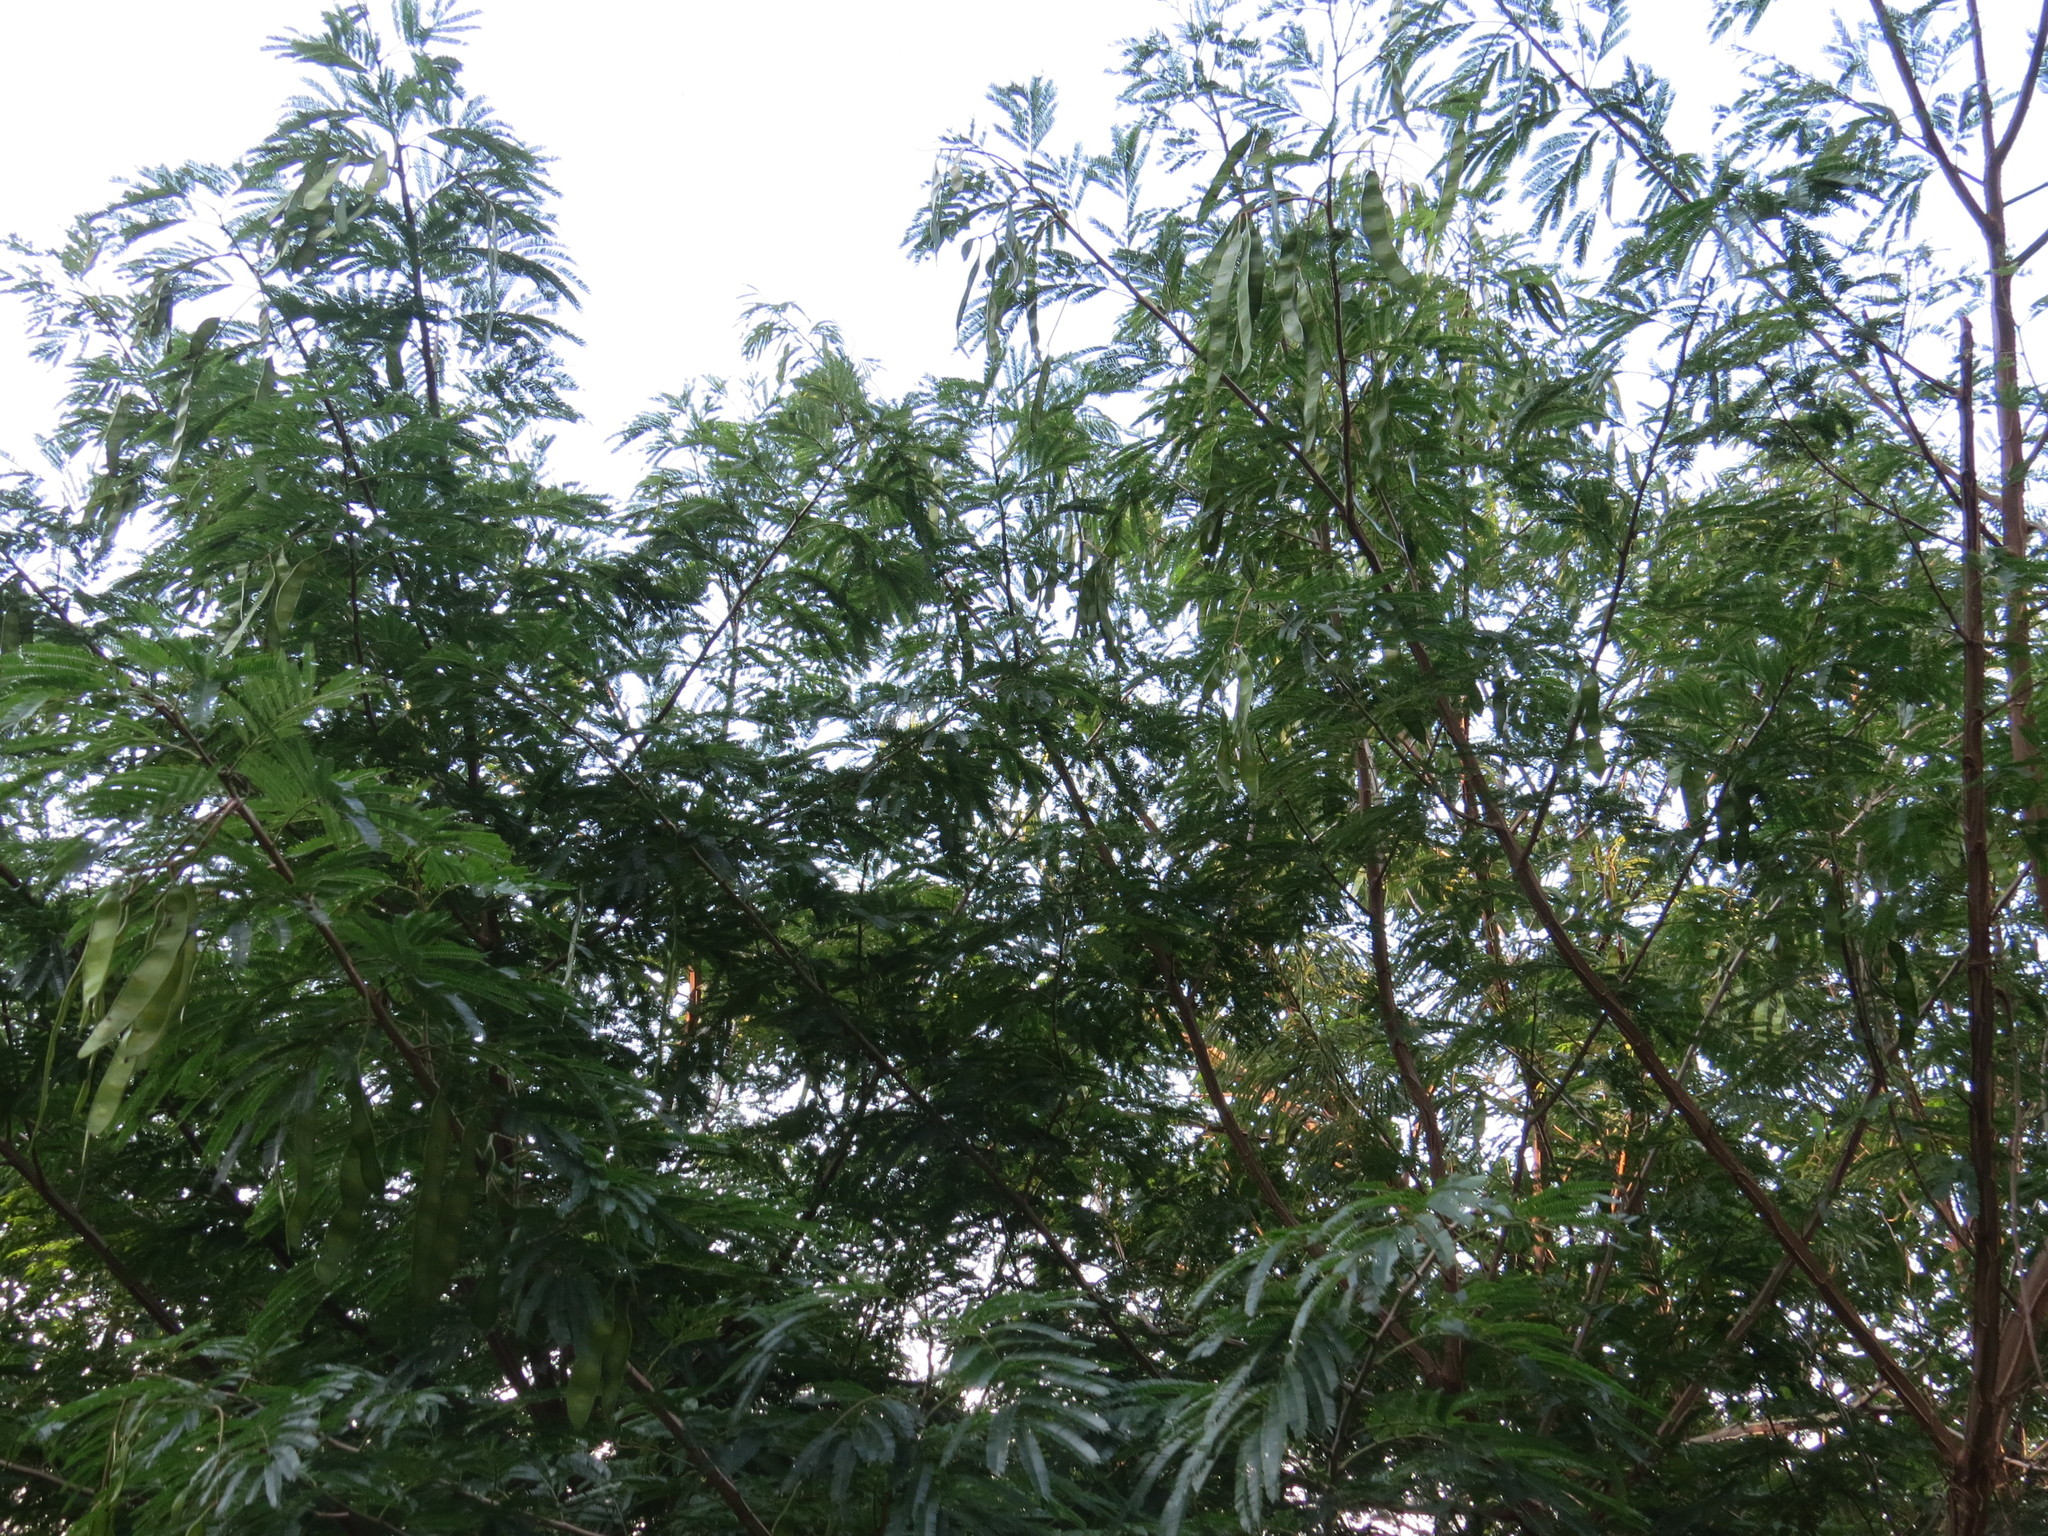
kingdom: Plantae
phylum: Tracheophyta
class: Magnoliopsida
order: Fabales
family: Fabaceae
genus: Piptadenia
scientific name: Piptadenia gonoacantha
